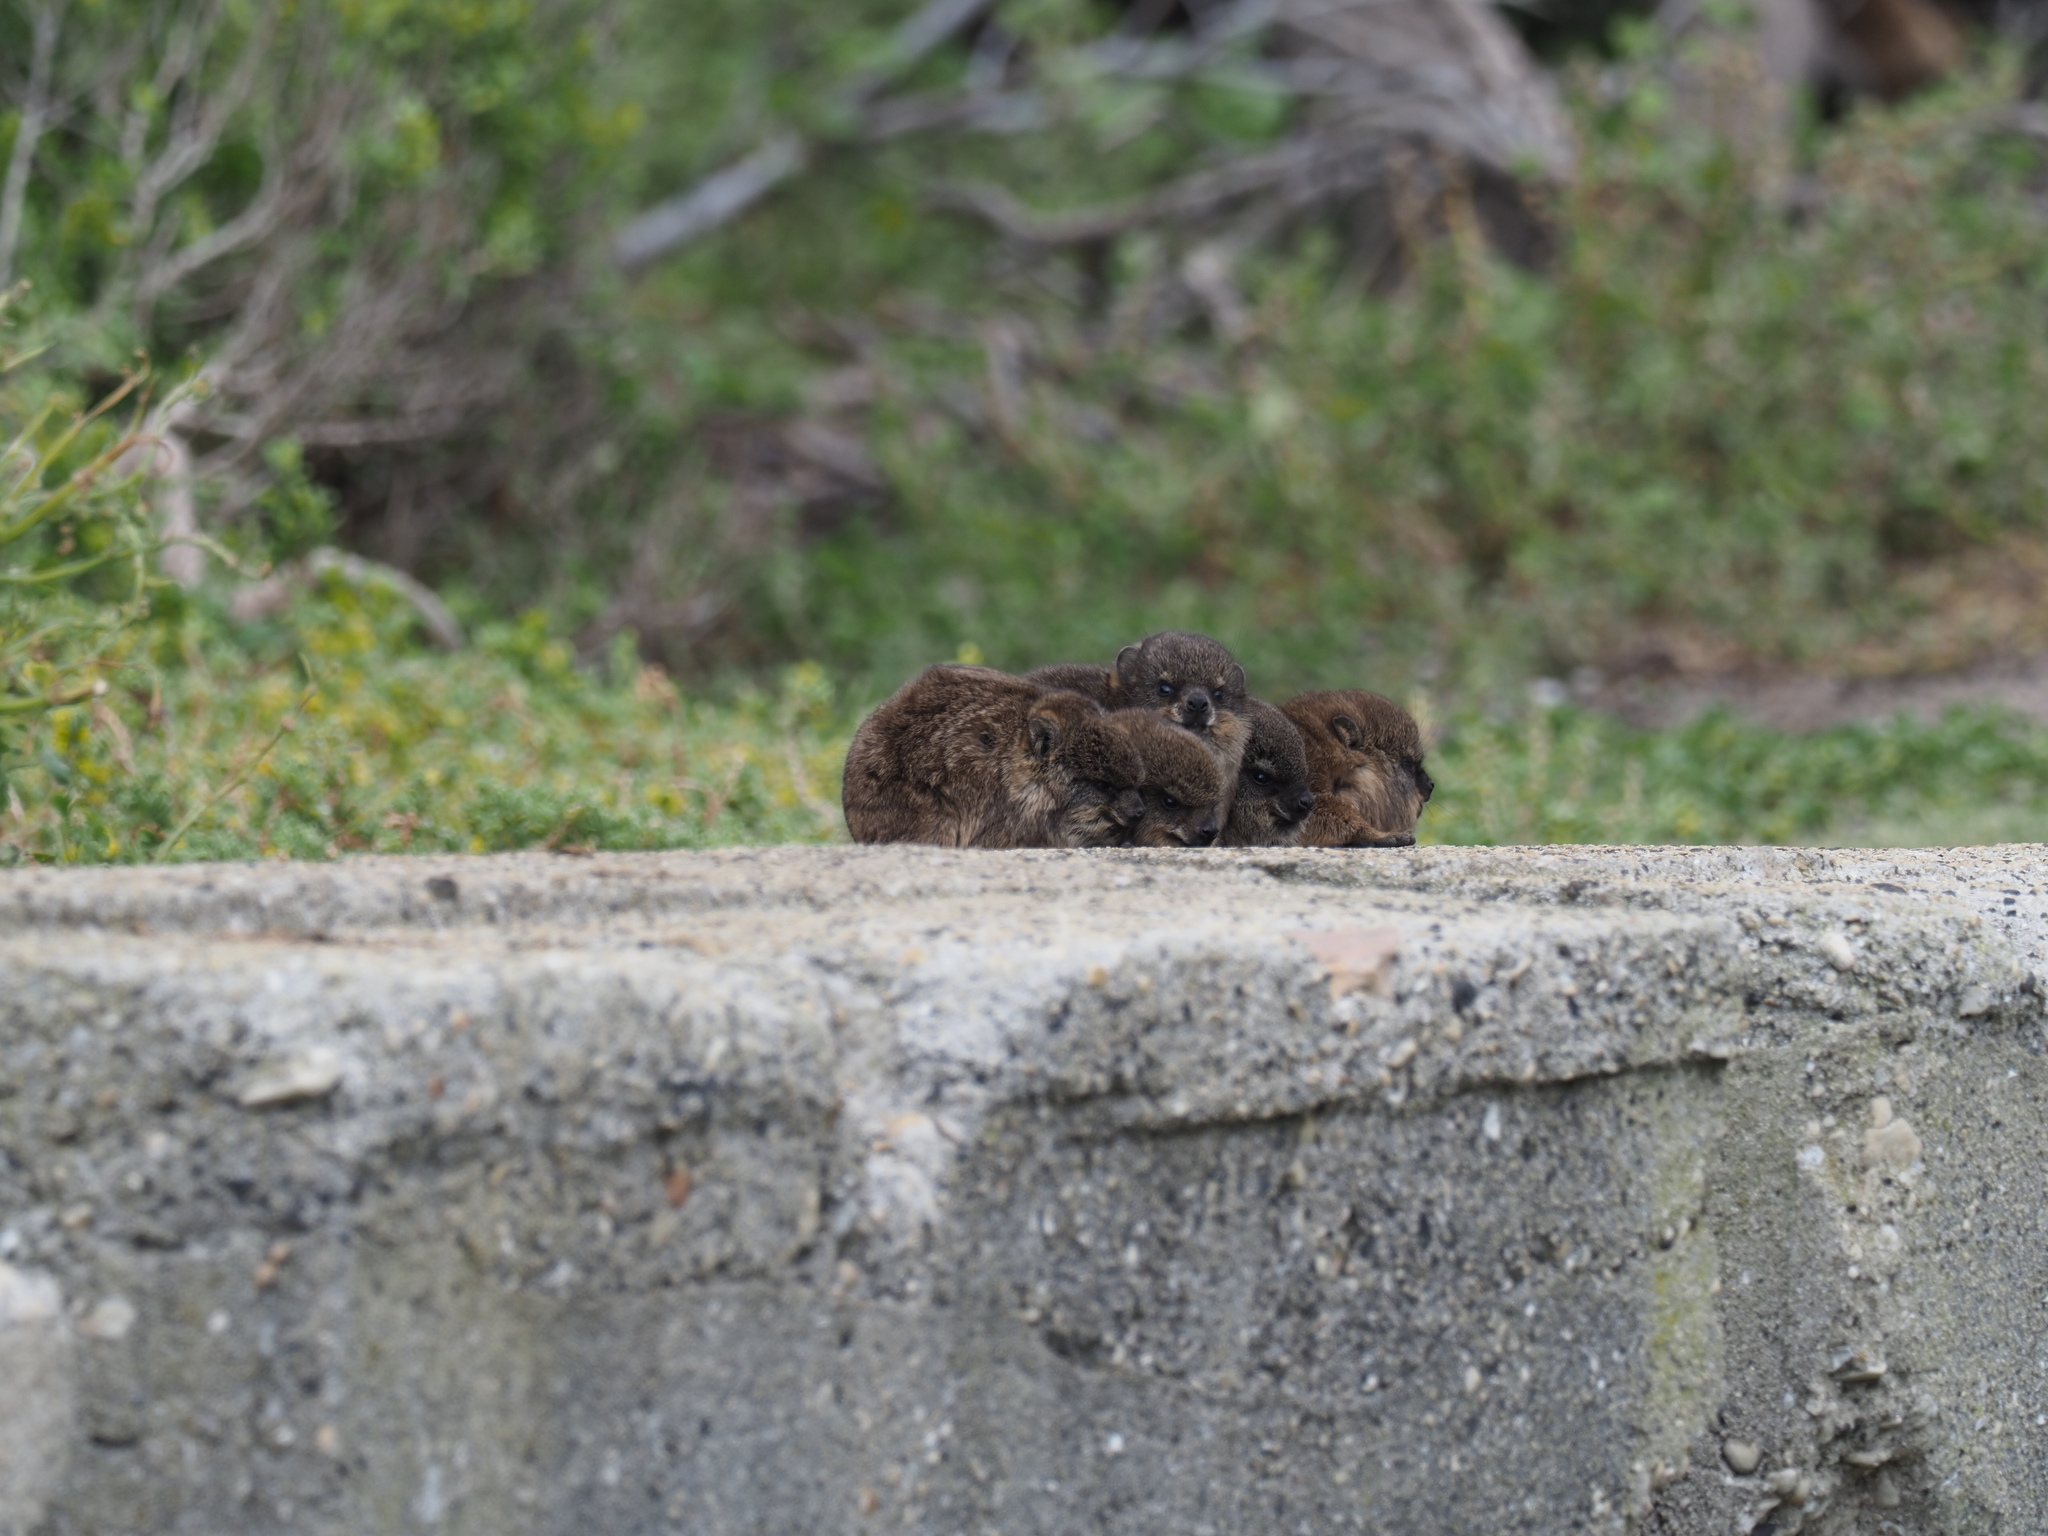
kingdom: Animalia
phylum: Chordata
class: Mammalia
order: Hyracoidea
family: Procaviidae
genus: Procavia
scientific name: Procavia capensis
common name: Rock hyrax
